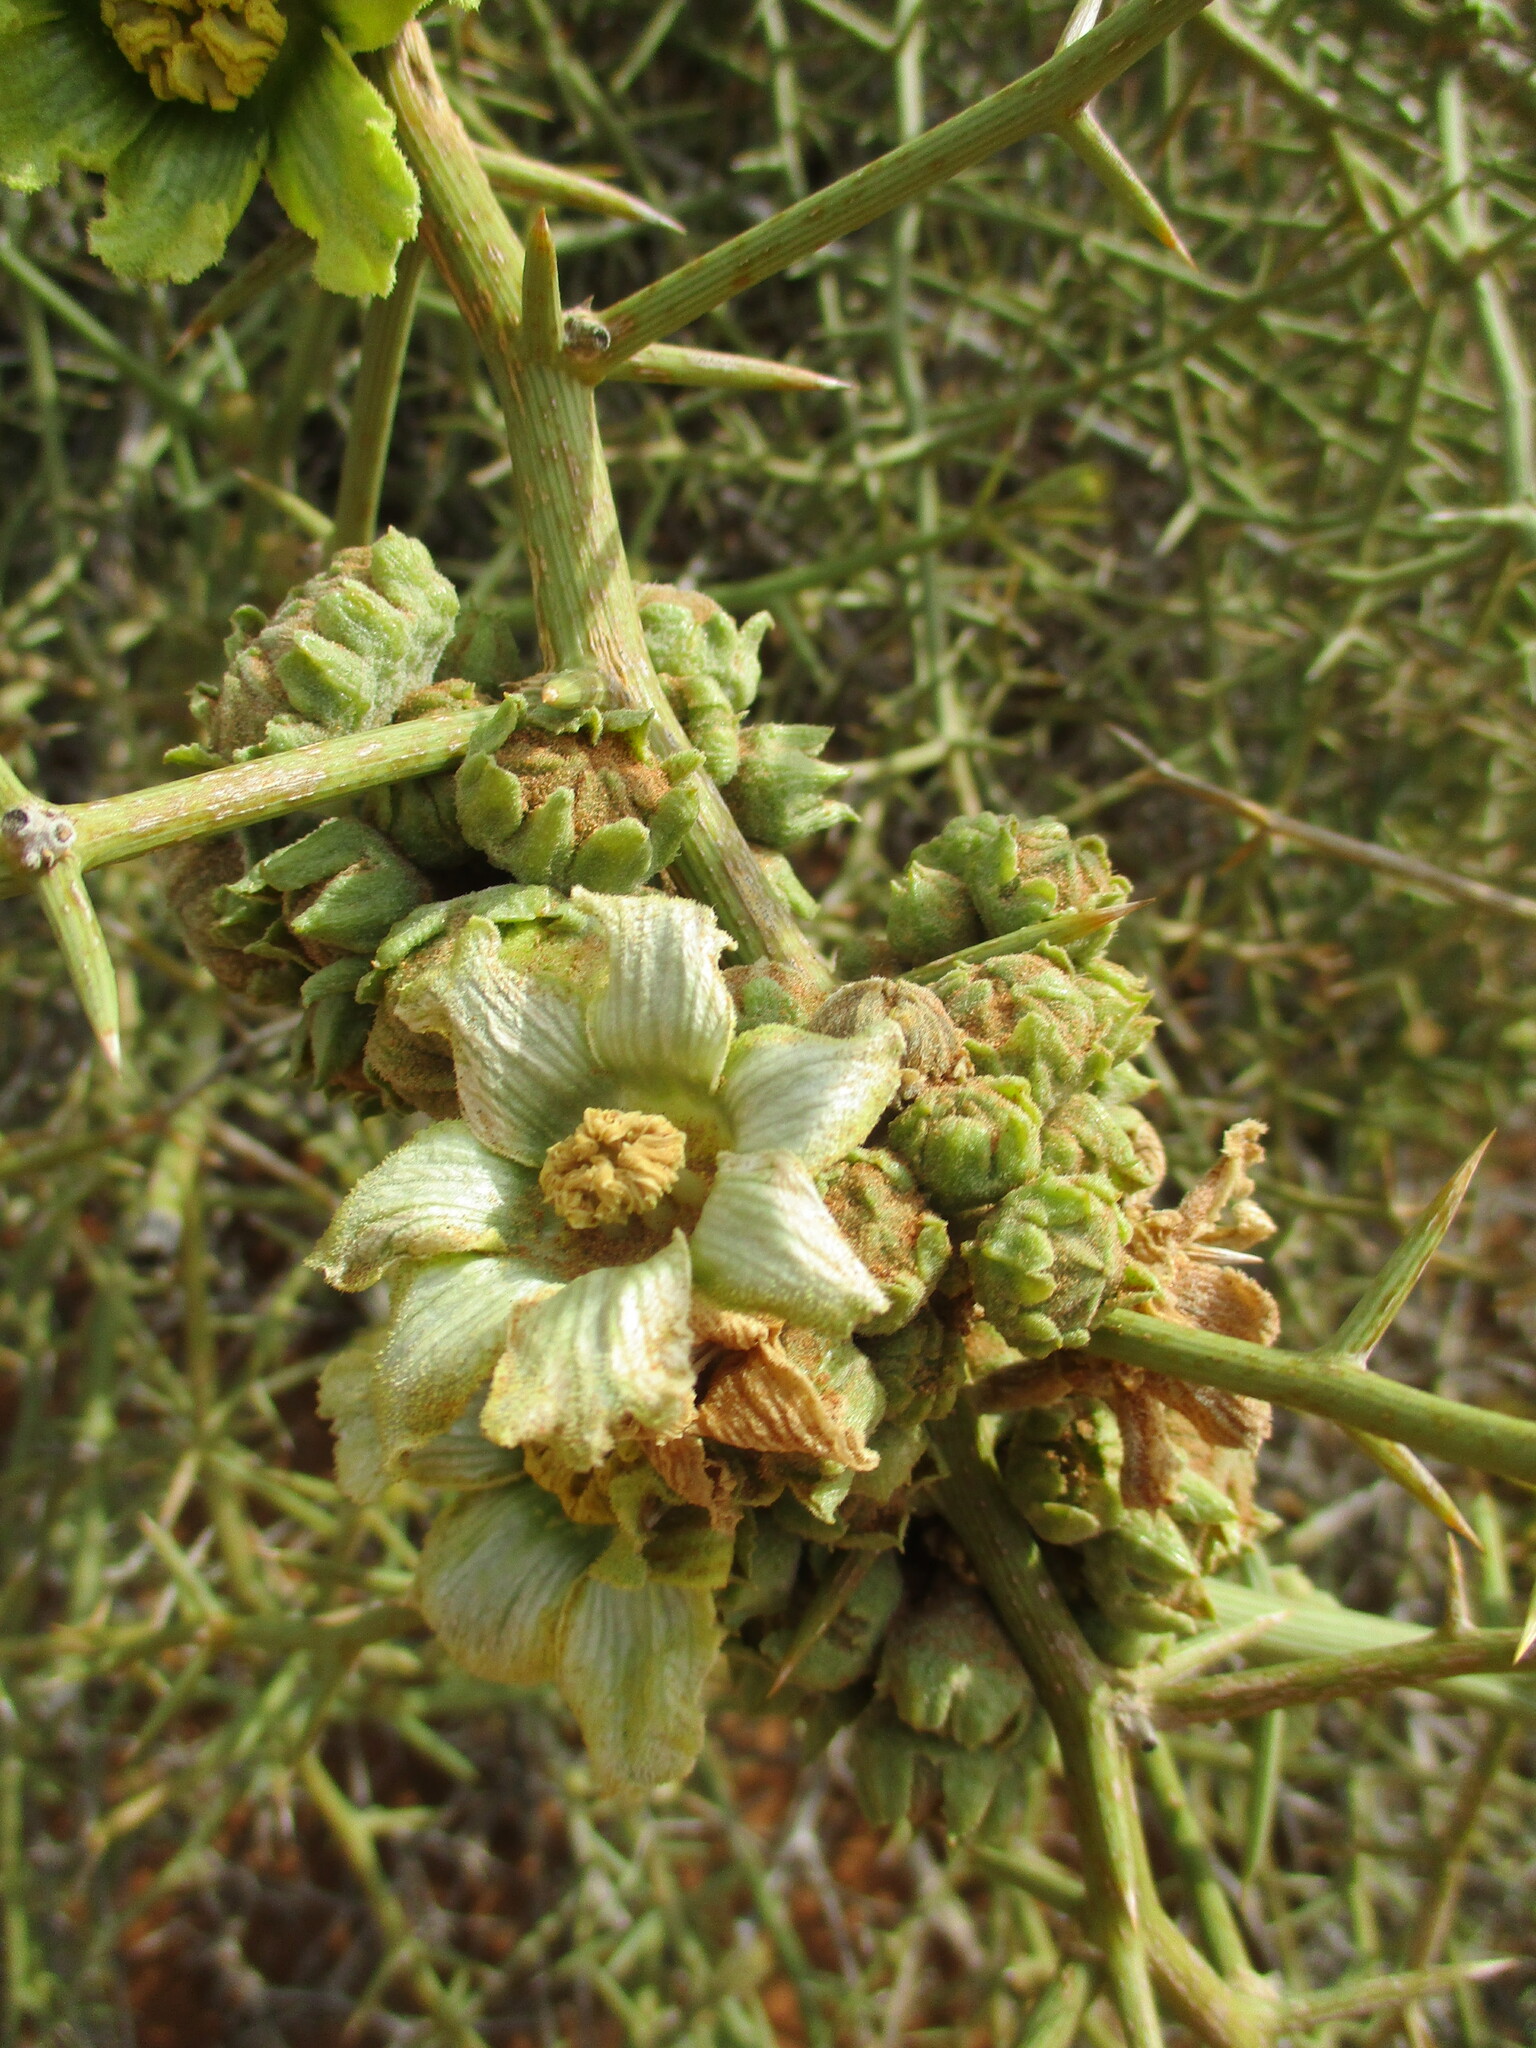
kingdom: Plantae
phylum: Tracheophyta
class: Magnoliopsida
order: Cucurbitales
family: Cucurbitaceae
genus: Acanthosicyos
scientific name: Acanthosicyos horridus
